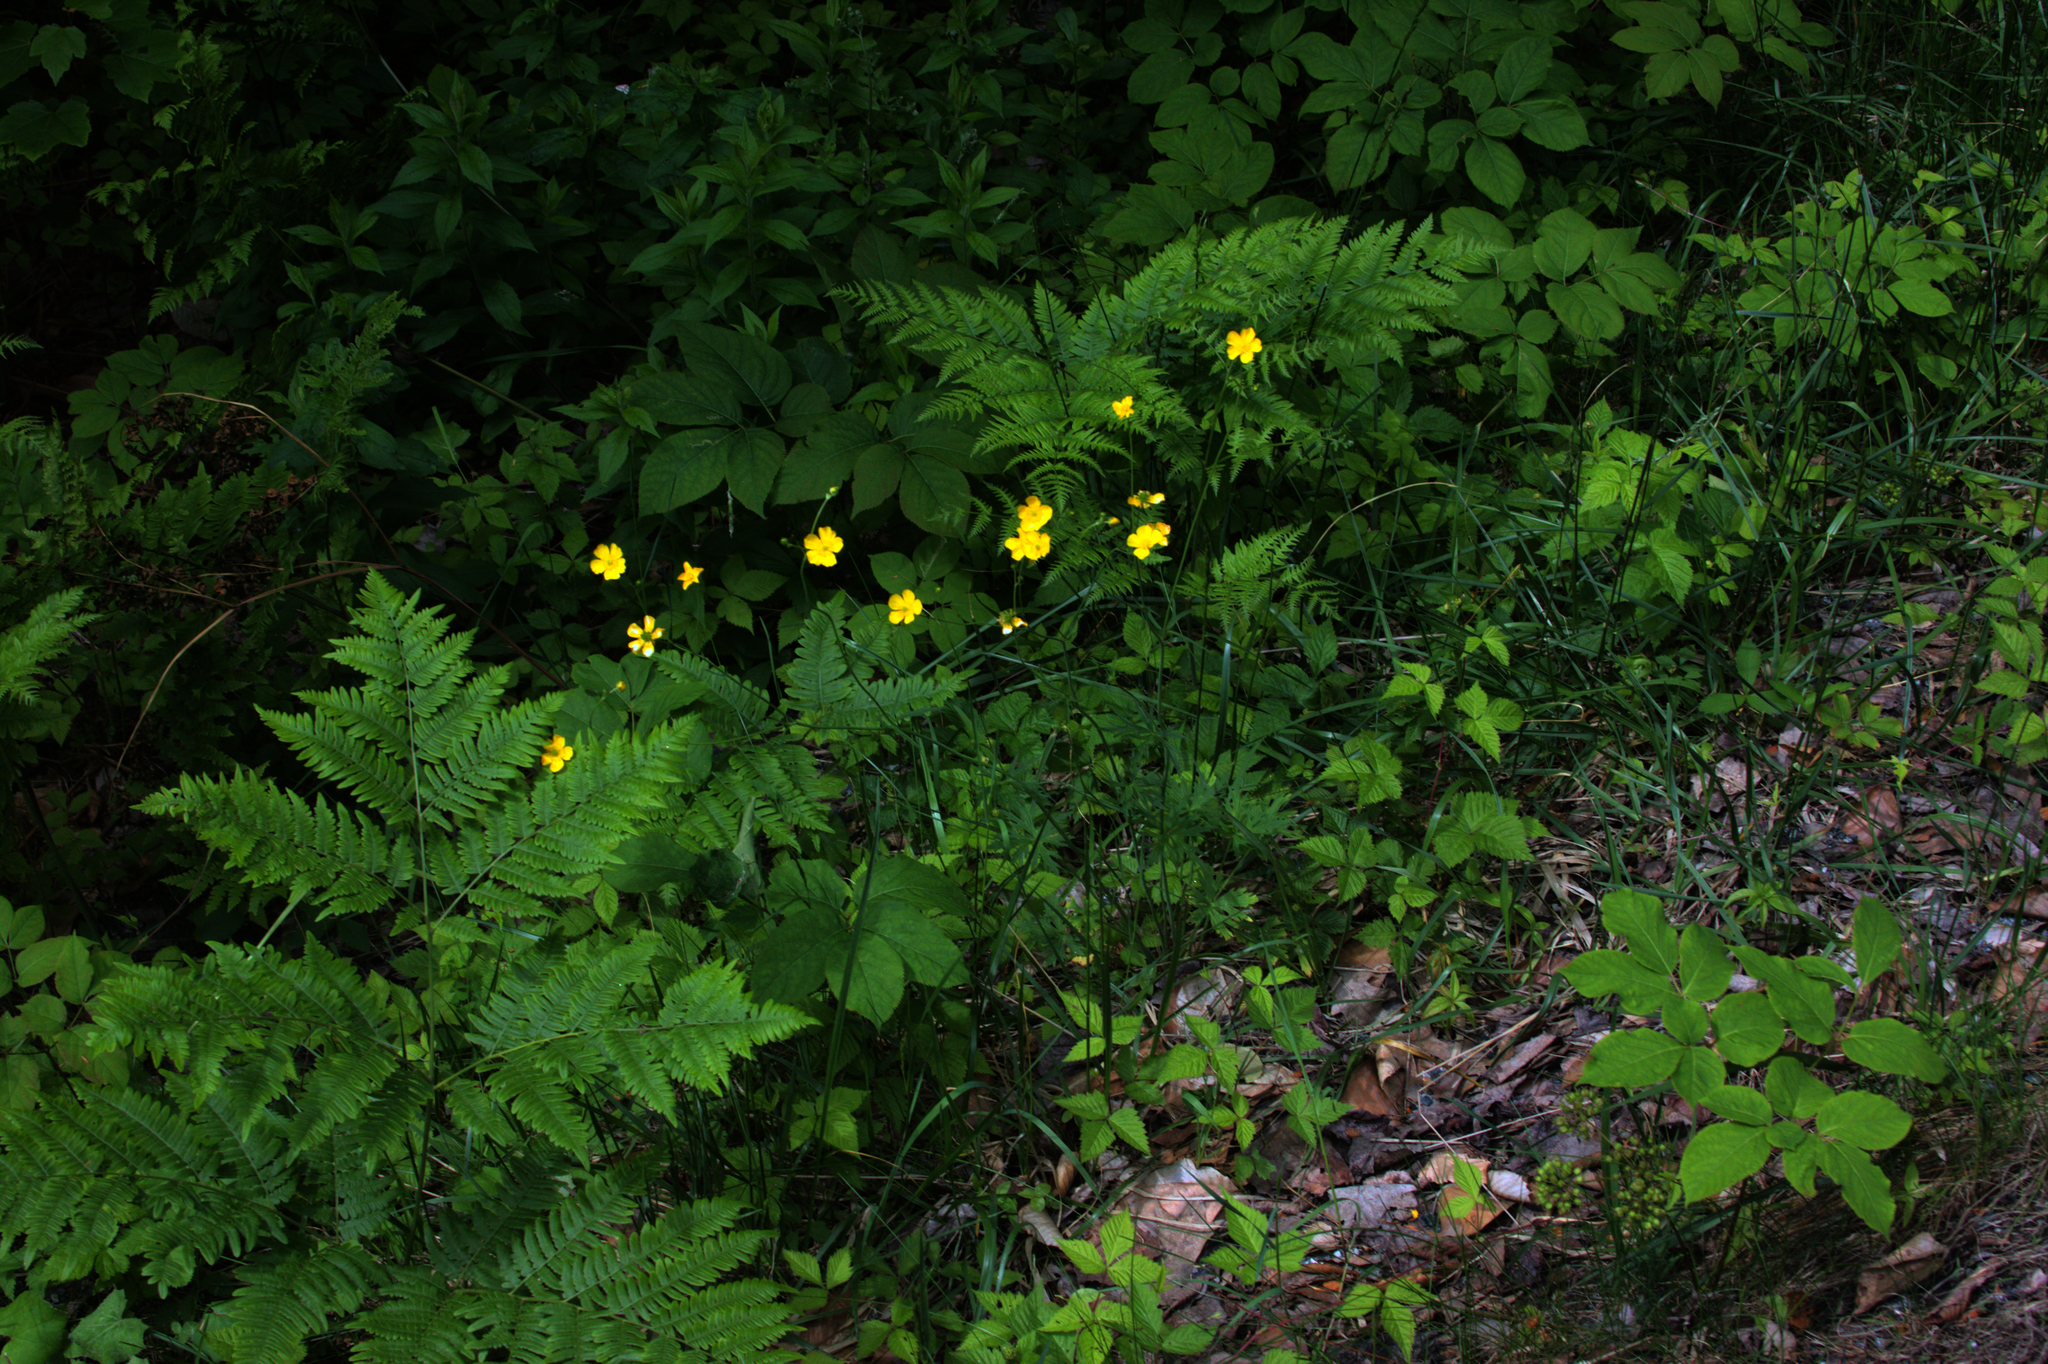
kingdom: Plantae
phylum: Tracheophyta
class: Polypodiopsida
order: Polypodiales
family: Dennstaedtiaceae
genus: Pteridium
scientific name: Pteridium aquilinum
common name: Bracken
